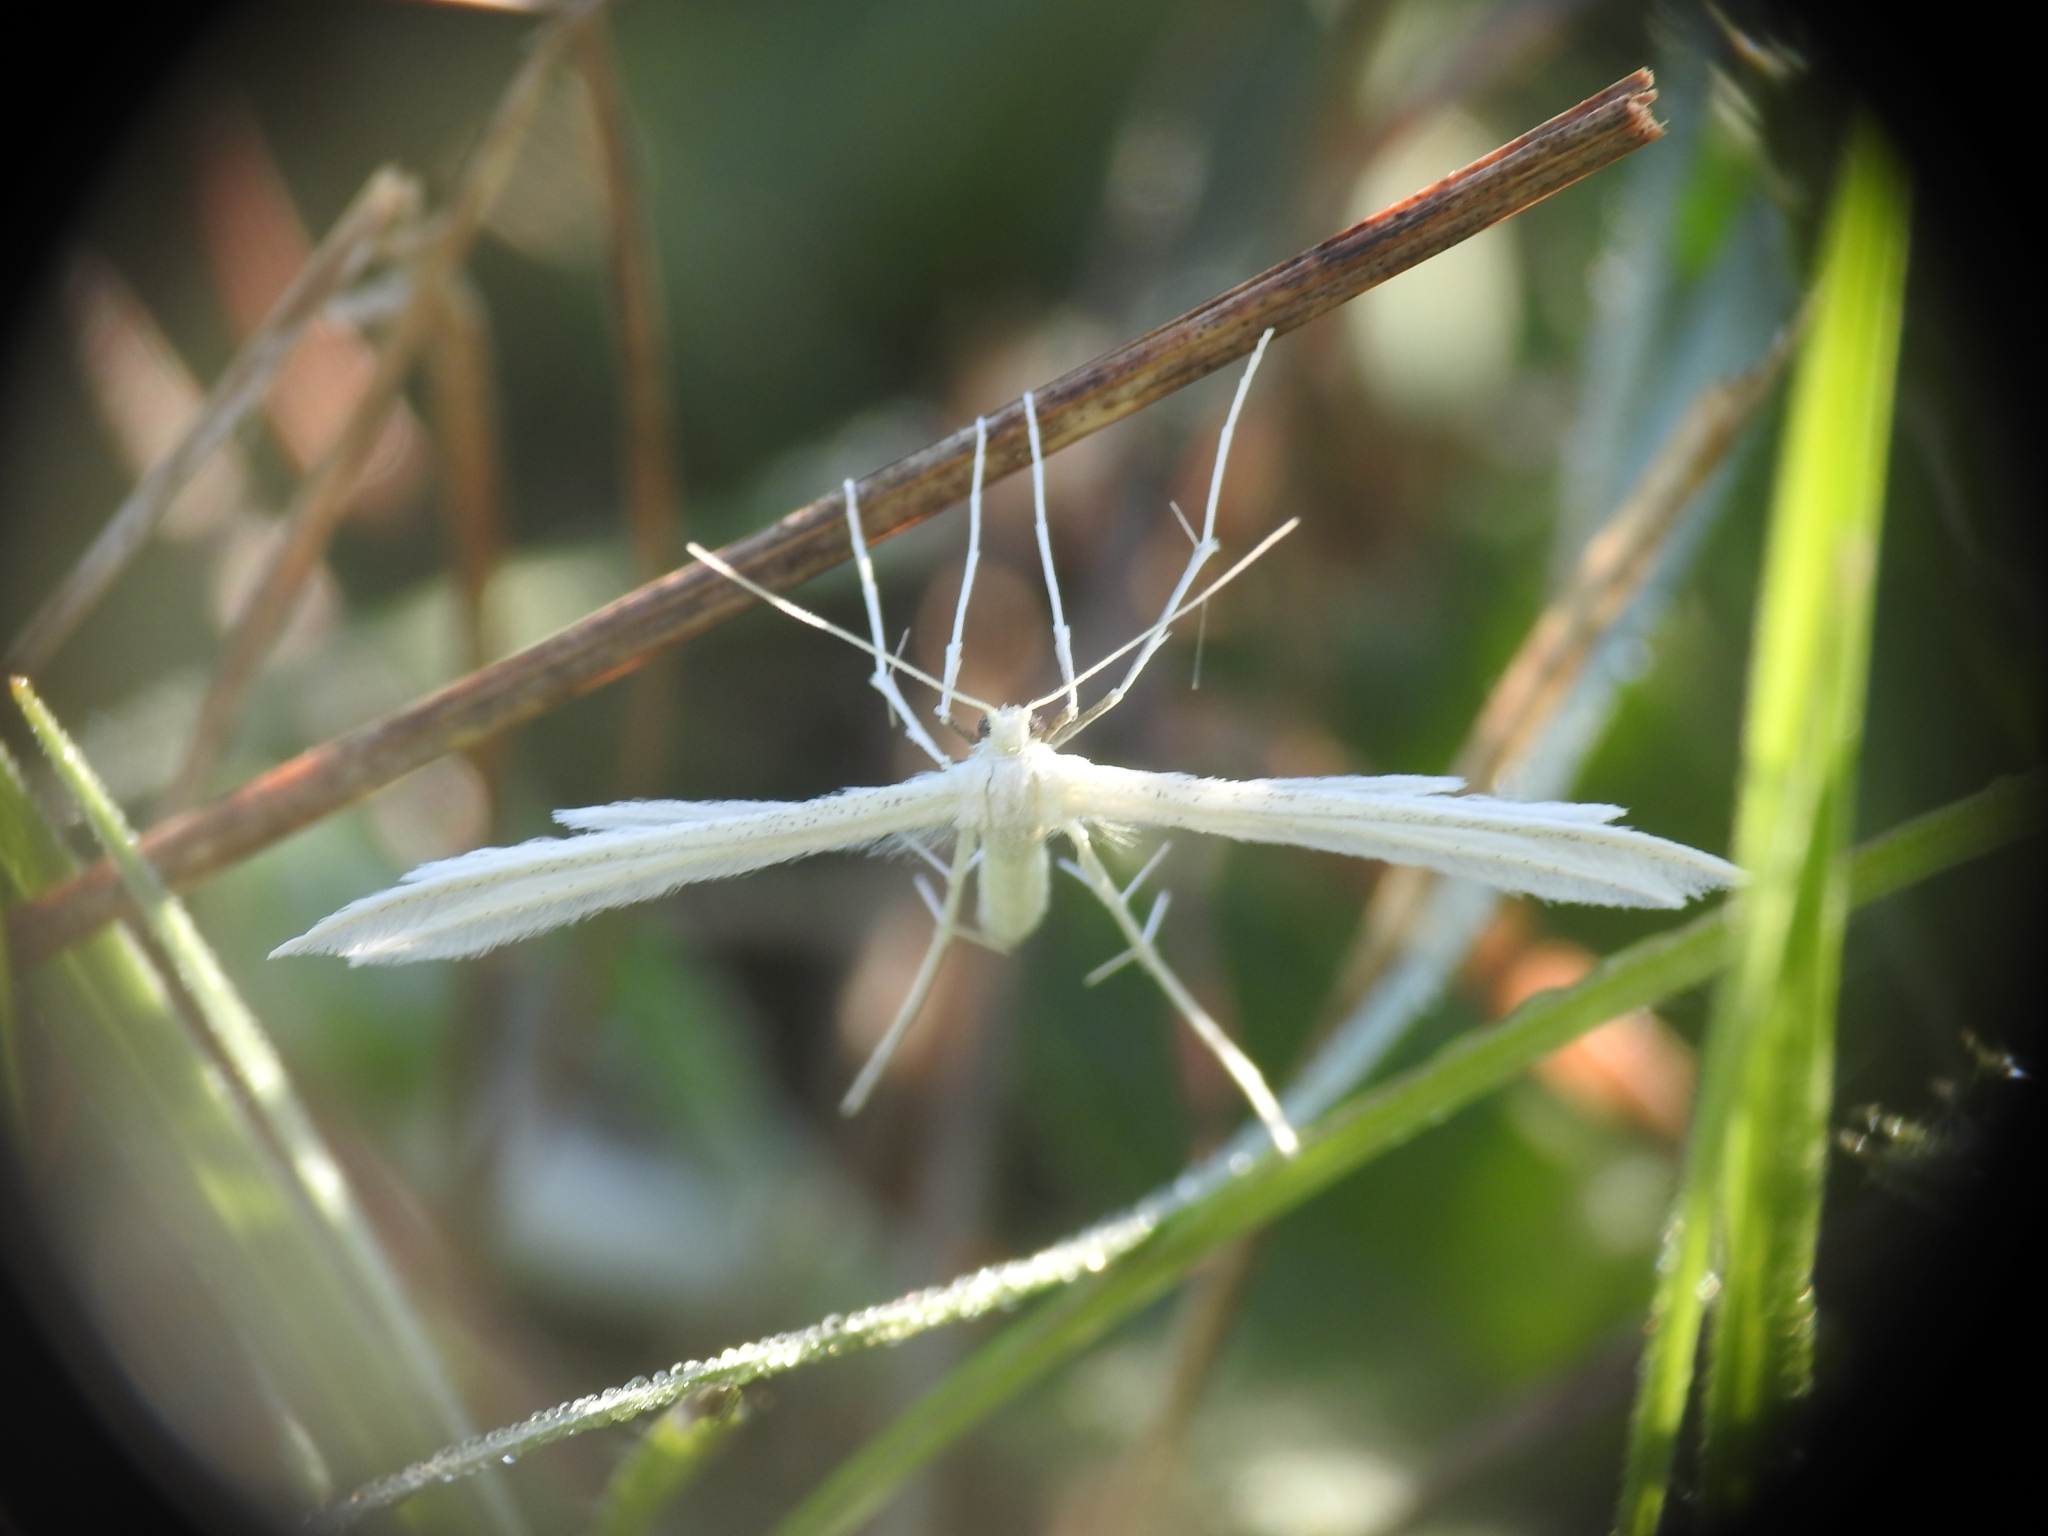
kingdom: Animalia
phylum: Arthropoda
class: Insecta
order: Lepidoptera
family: Pterophoridae
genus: Pterophorus
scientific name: Pterophorus pentadactyla
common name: White plume moth
